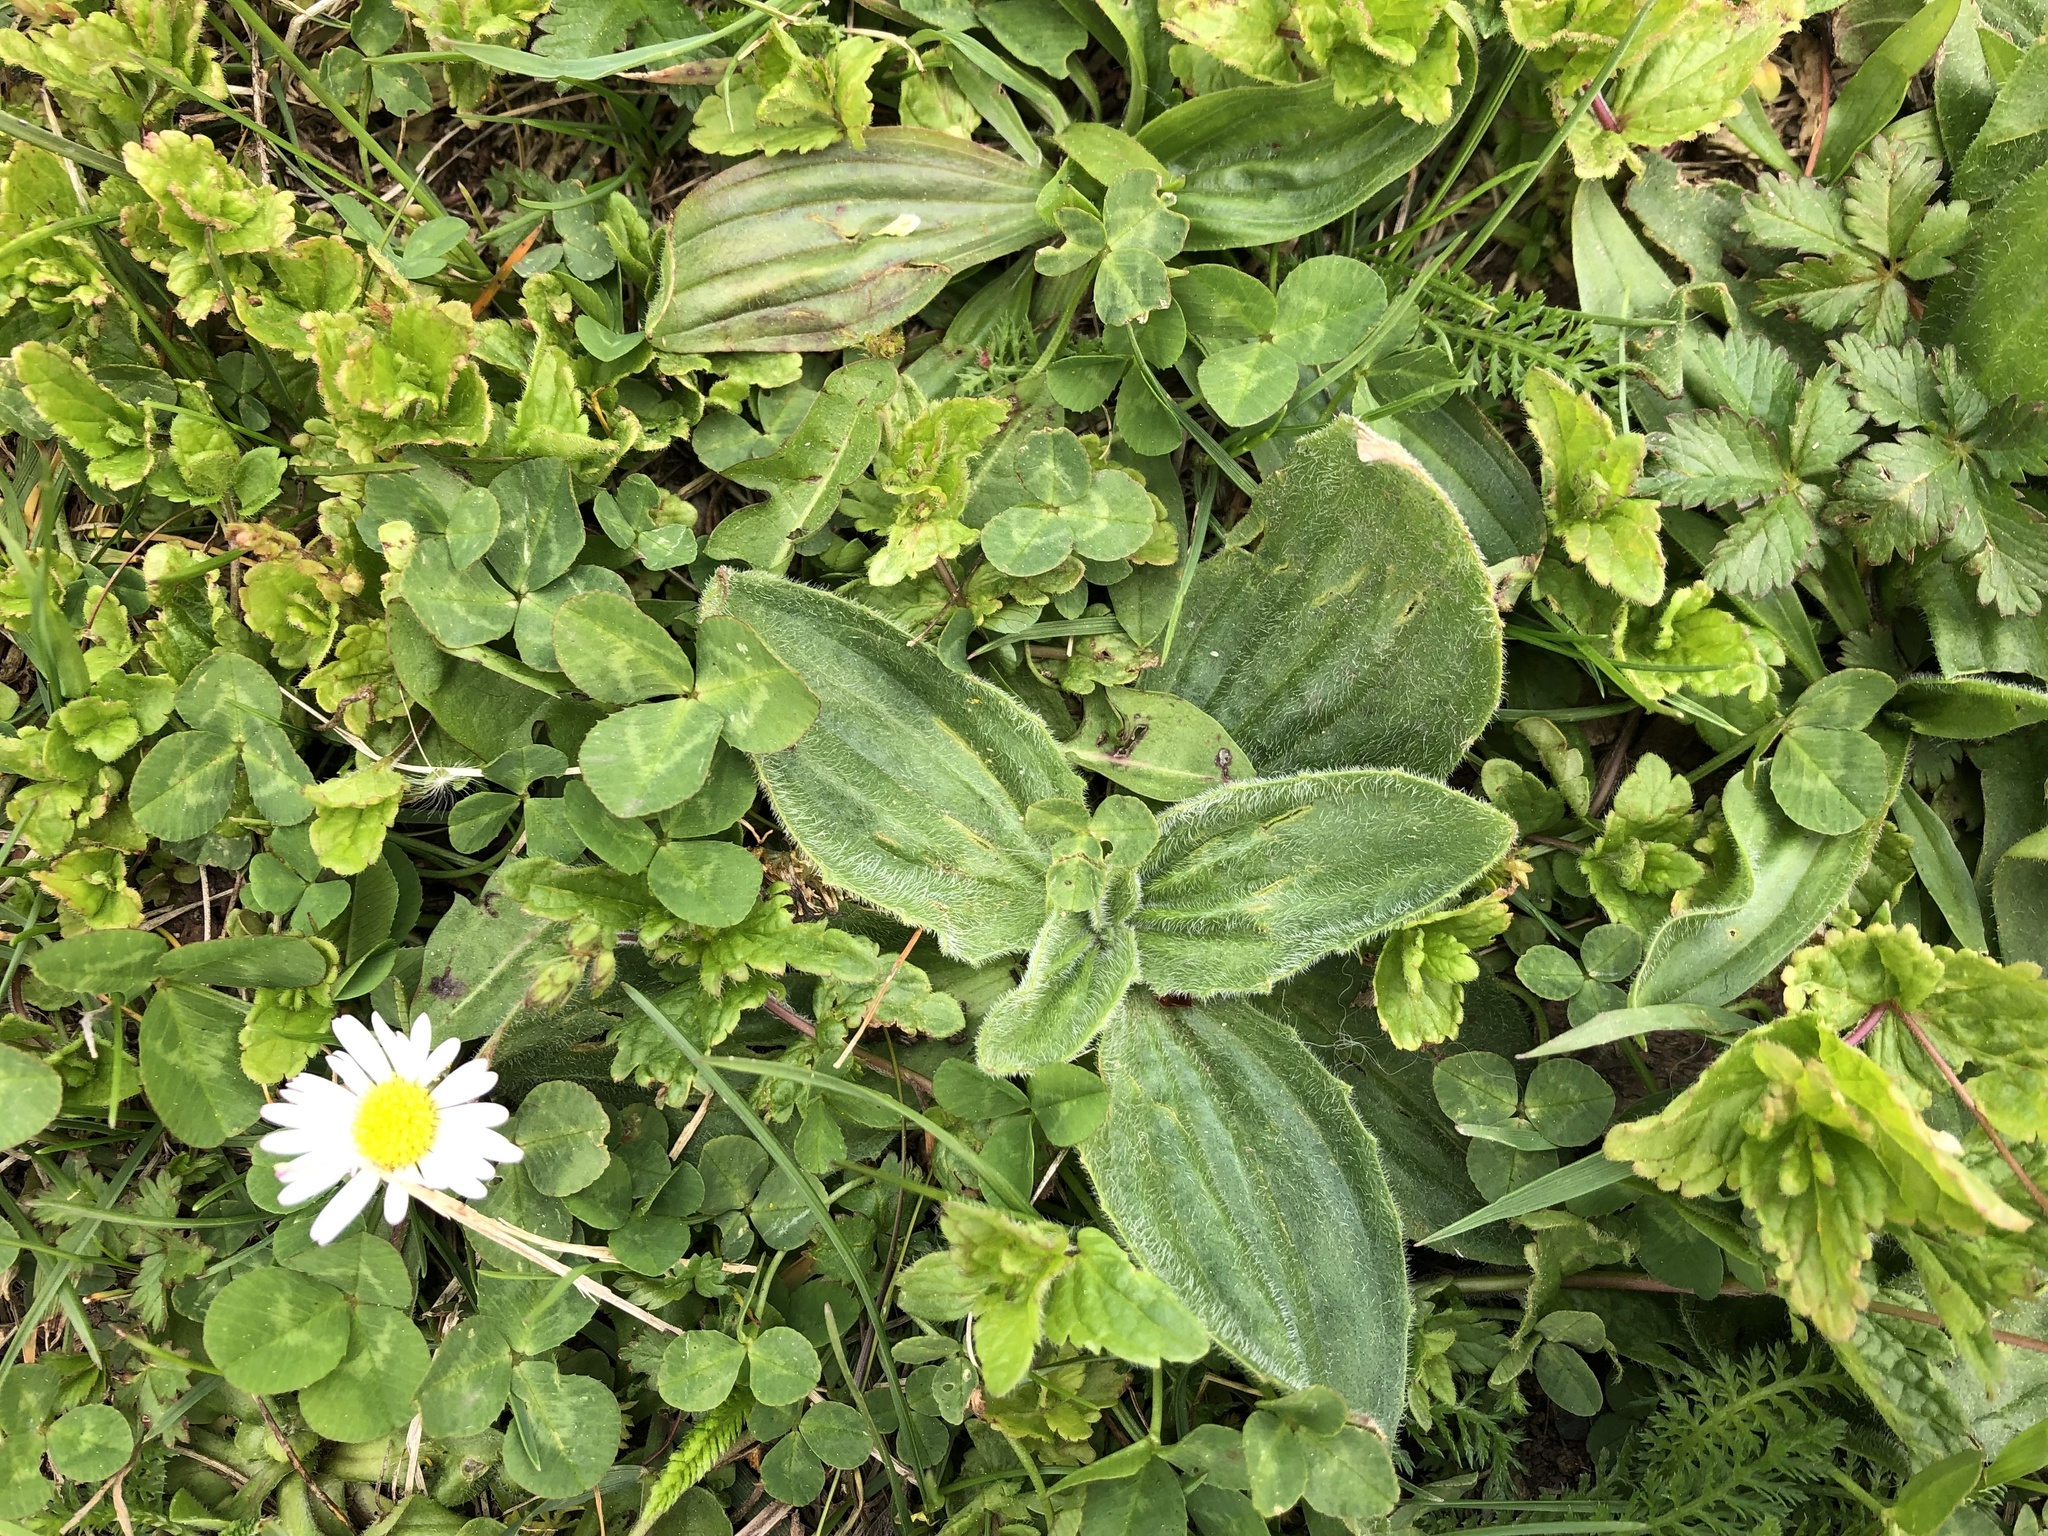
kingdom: Plantae
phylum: Tracheophyta
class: Magnoliopsida
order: Lamiales
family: Plantaginaceae
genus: Plantago
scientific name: Plantago media
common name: Hoary plantain
